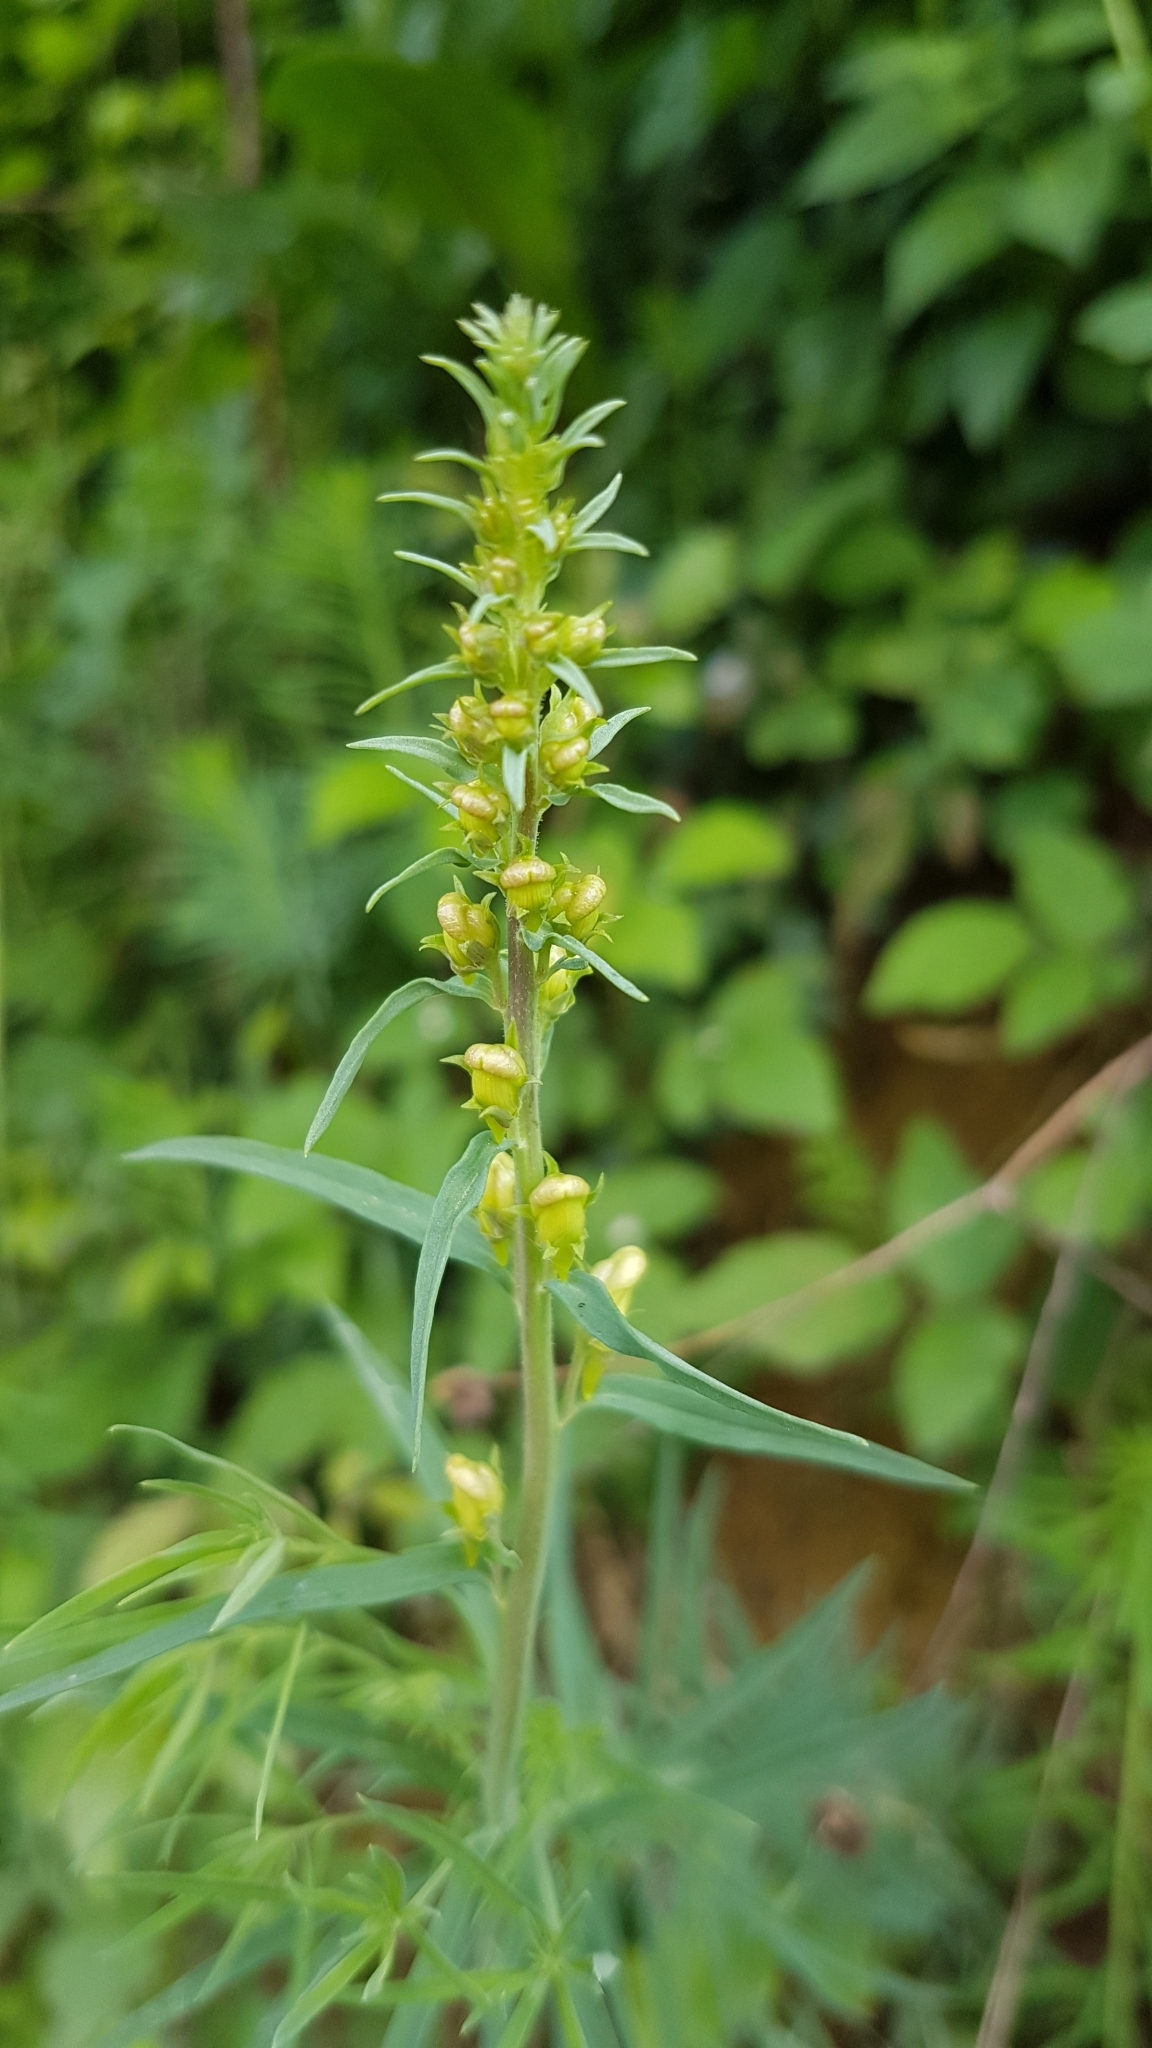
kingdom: Plantae
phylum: Tracheophyta
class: Magnoliopsida
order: Lamiales
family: Plantaginaceae
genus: Linaria
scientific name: Linaria vulgaris
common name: Butter and eggs
